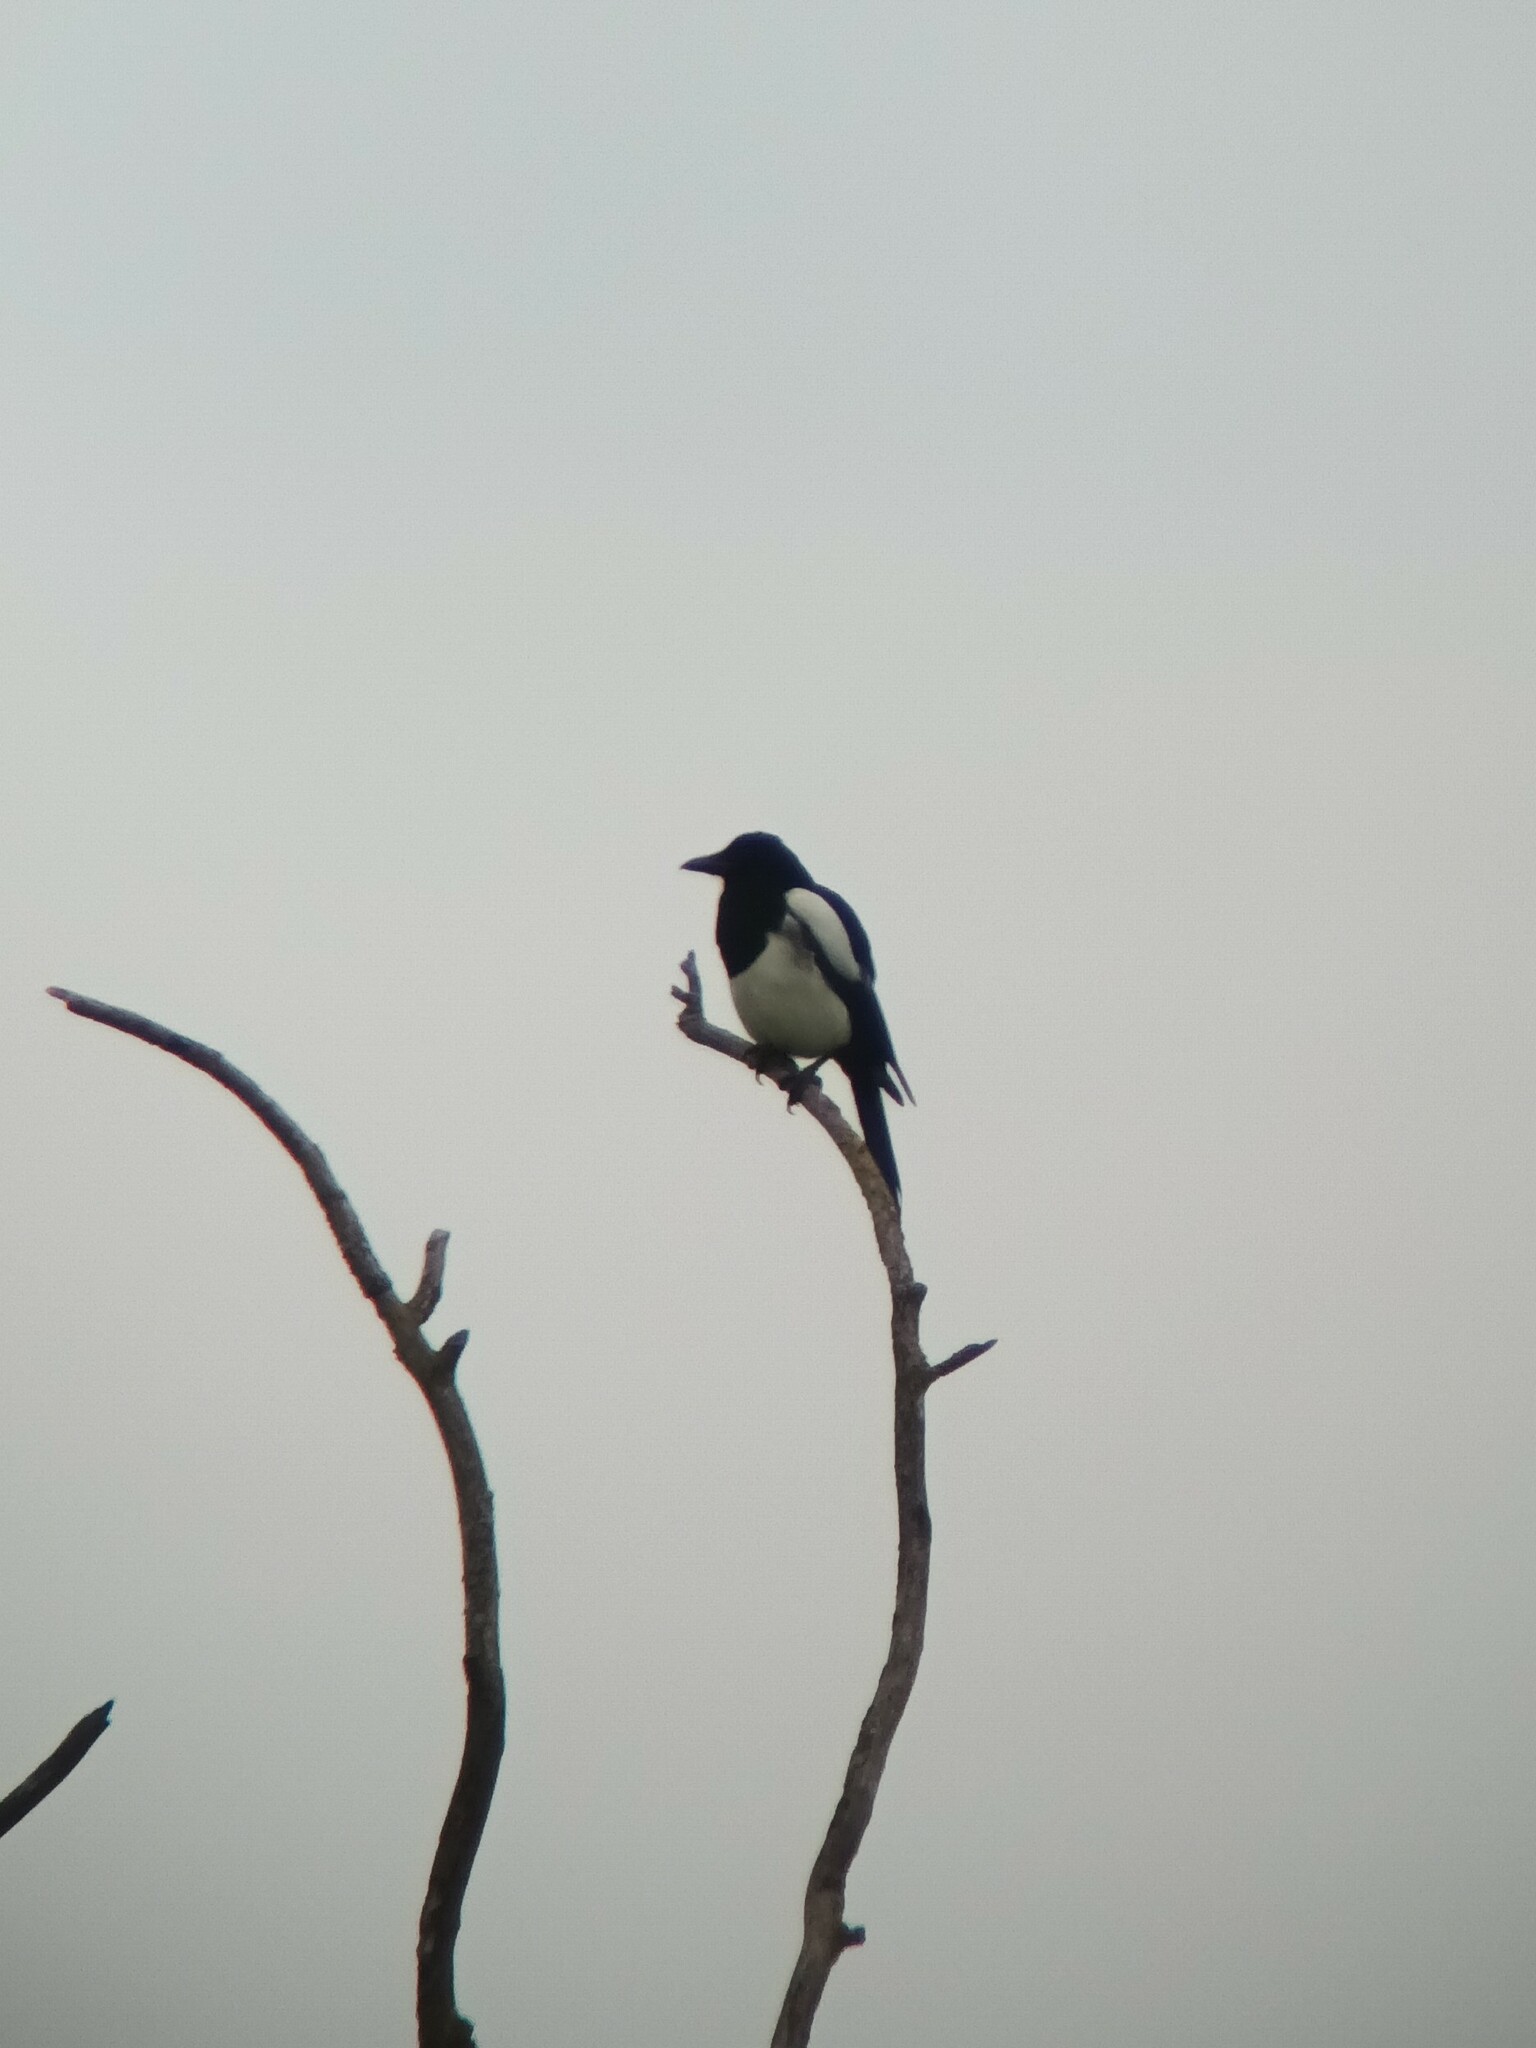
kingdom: Animalia
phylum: Chordata
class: Aves
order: Passeriformes
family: Corvidae
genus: Pica
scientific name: Pica pica
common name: Eurasian magpie
